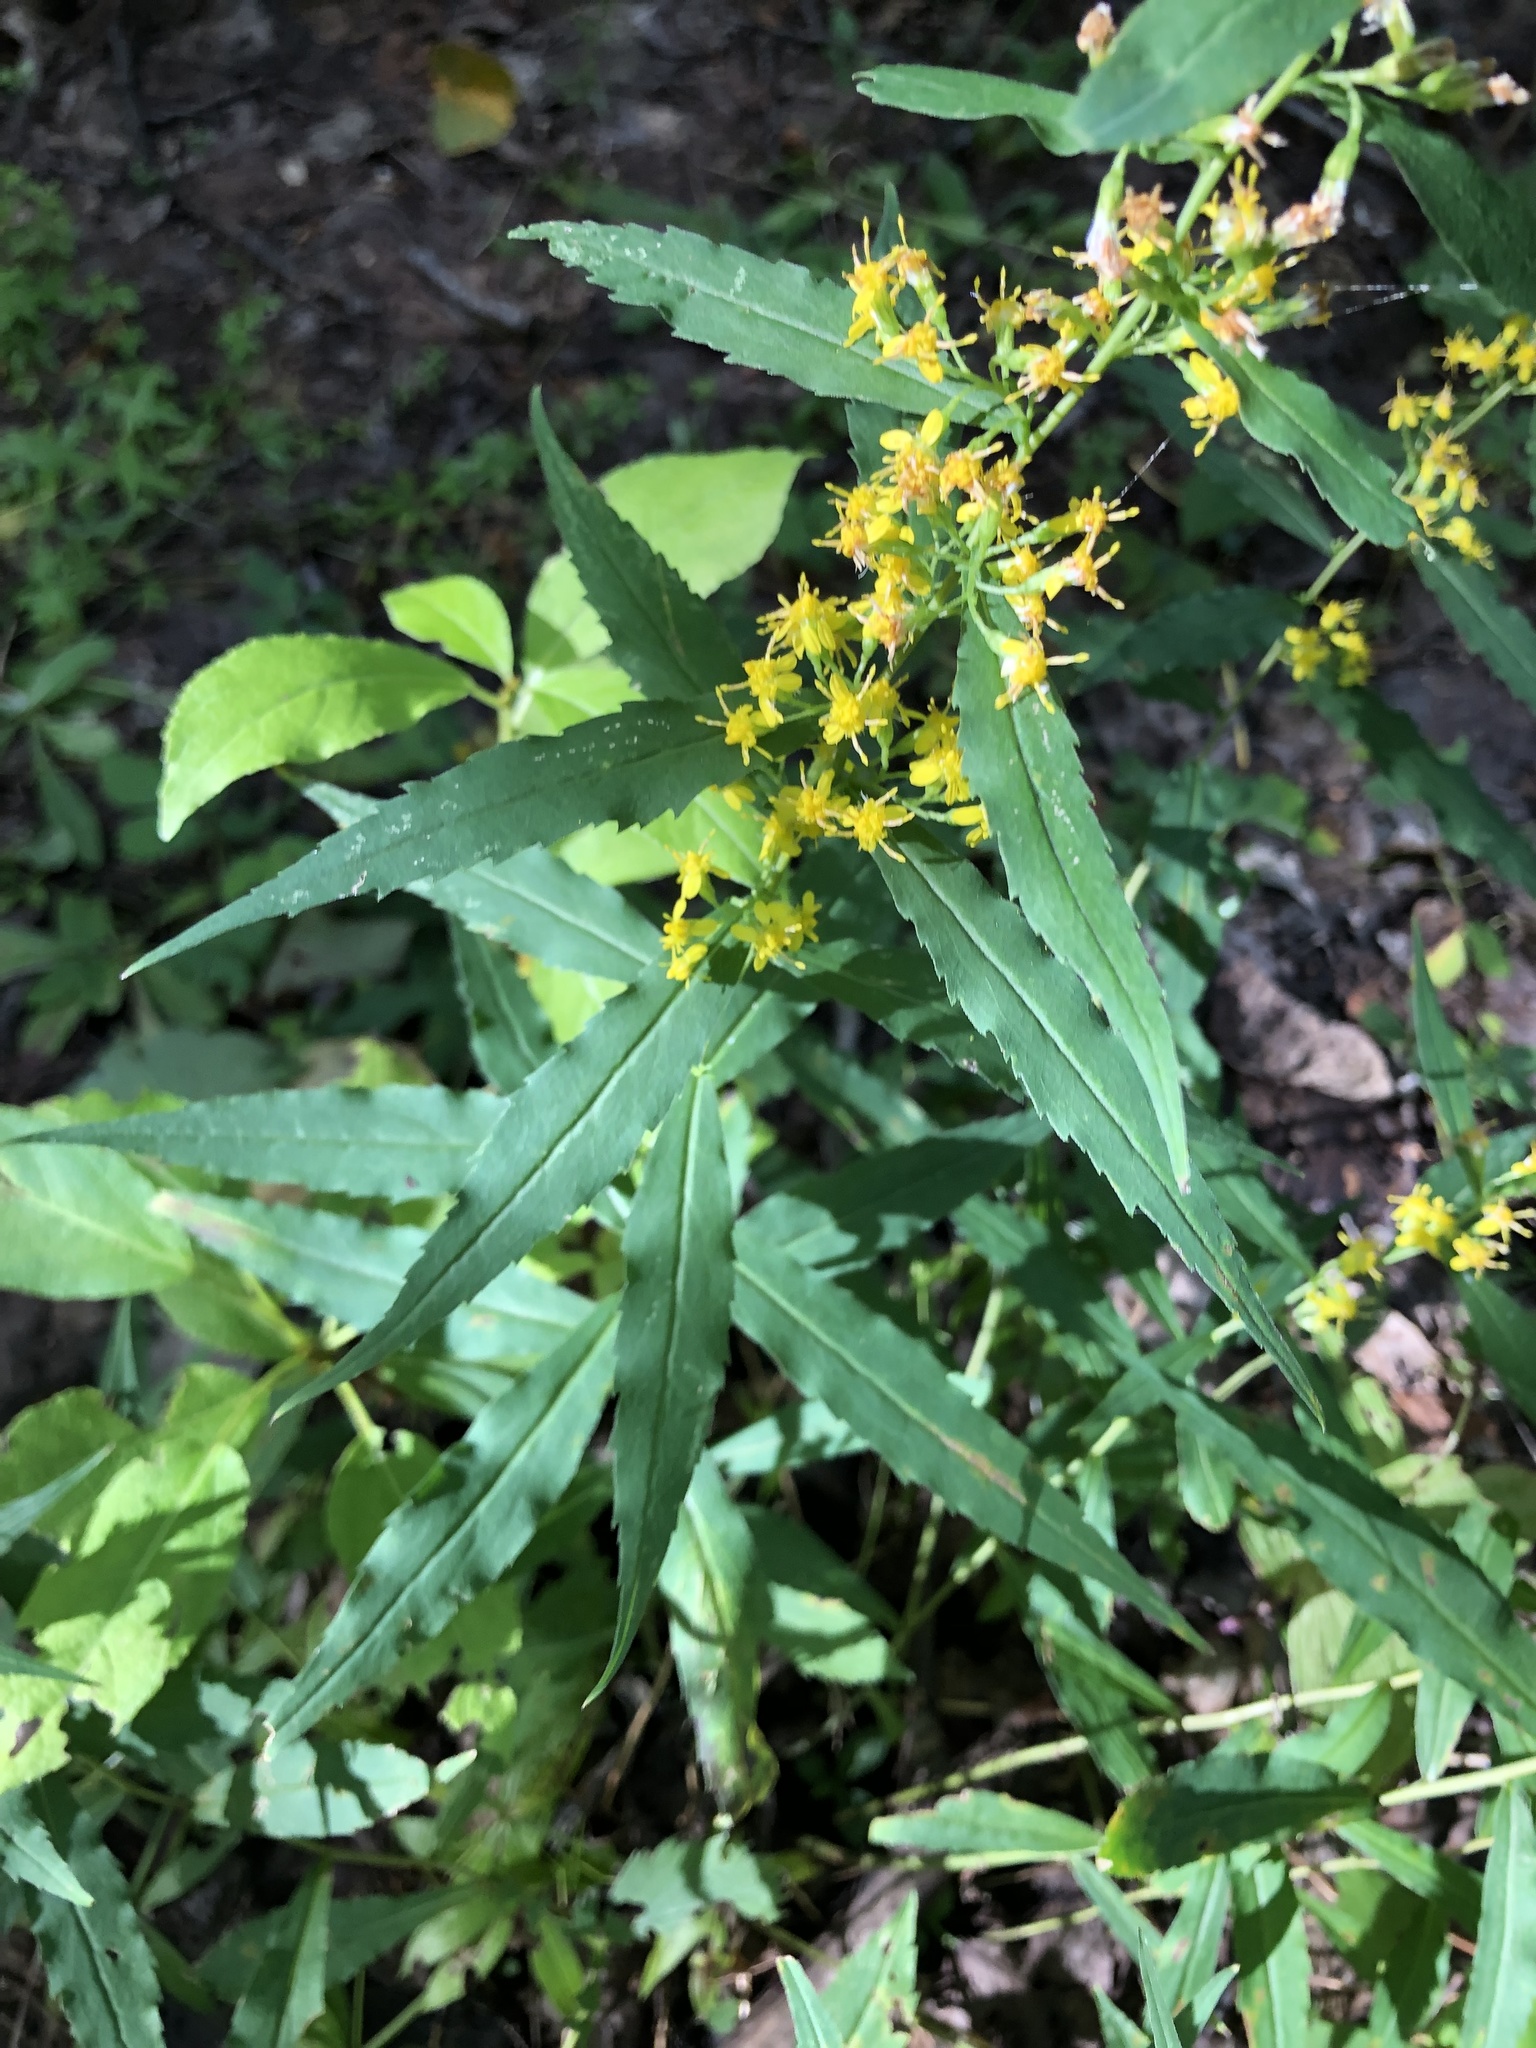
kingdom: Plantae
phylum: Tracheophyta
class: Magnoliopsida
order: Asterales
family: Asteraceae
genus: Solidago
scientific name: Solidago caesia
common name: Woodland goldenrod
